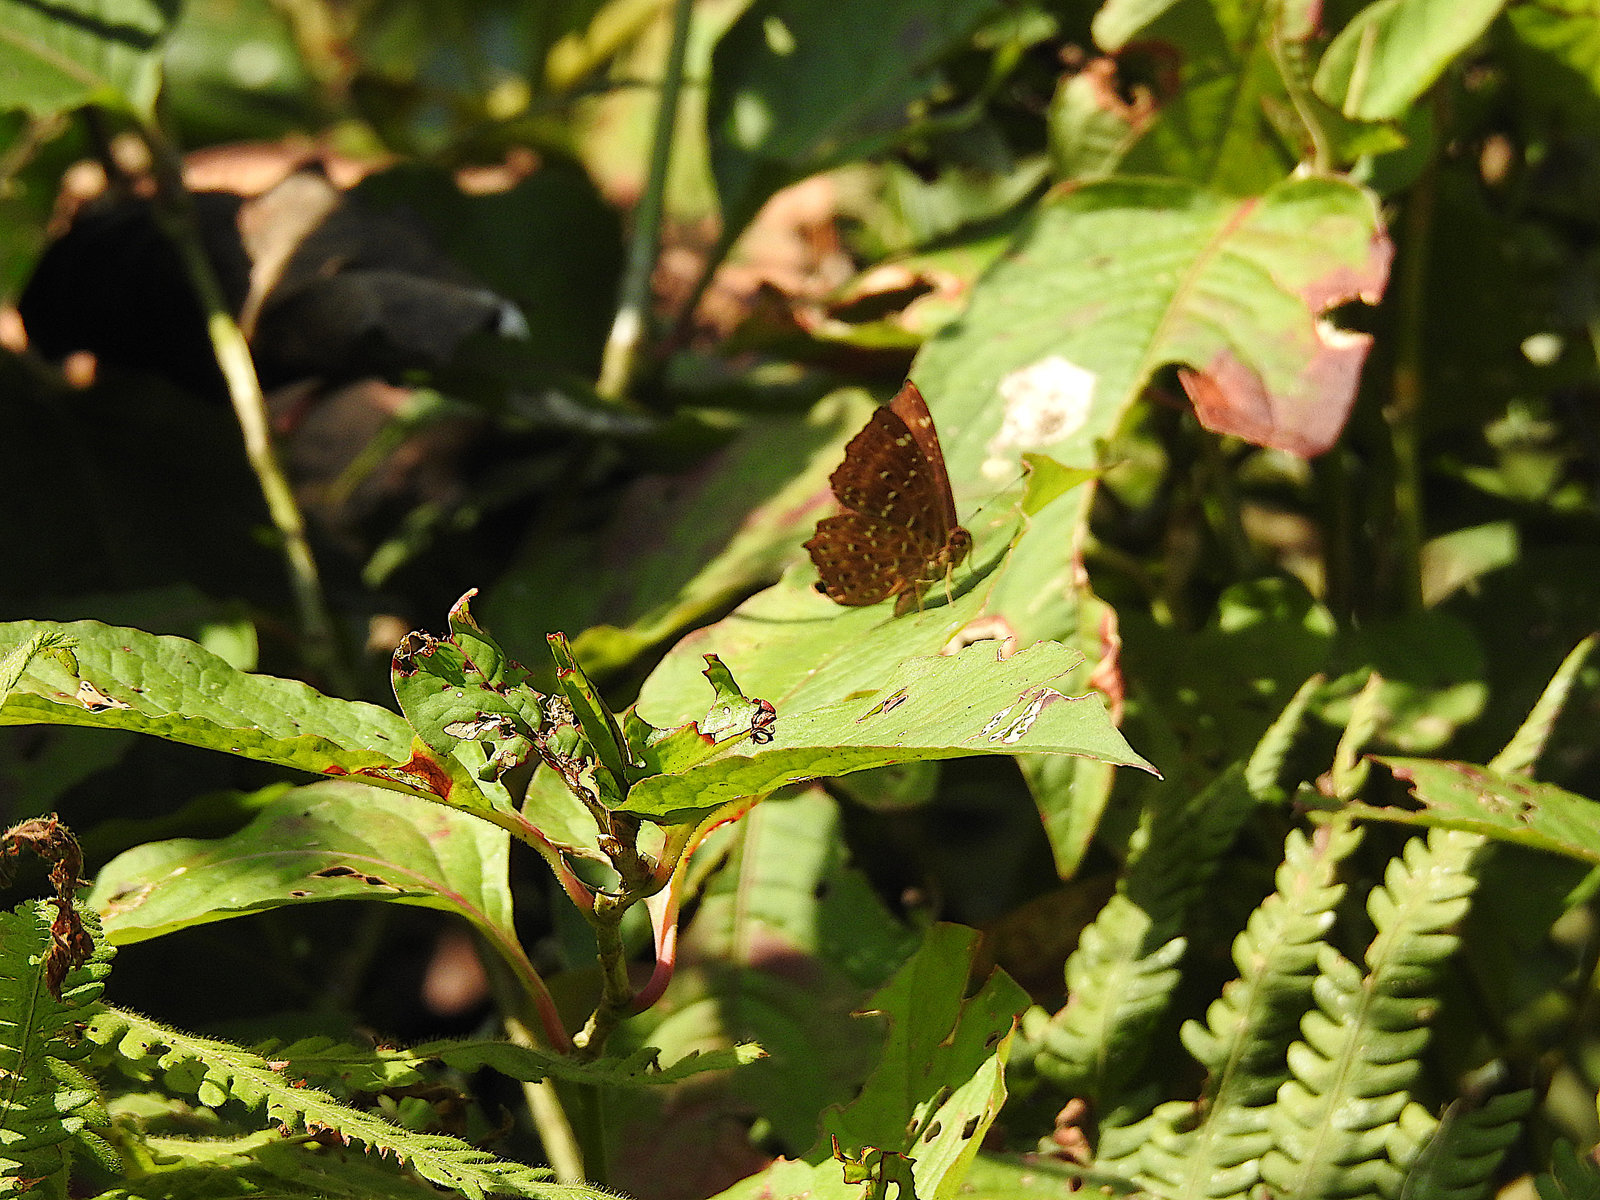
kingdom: Animalia
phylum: Arthropoda
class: Insecta
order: Lepidoptera
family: Riodinidae
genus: Zemeros
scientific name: Zemeros flegyas
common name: Punchinello
